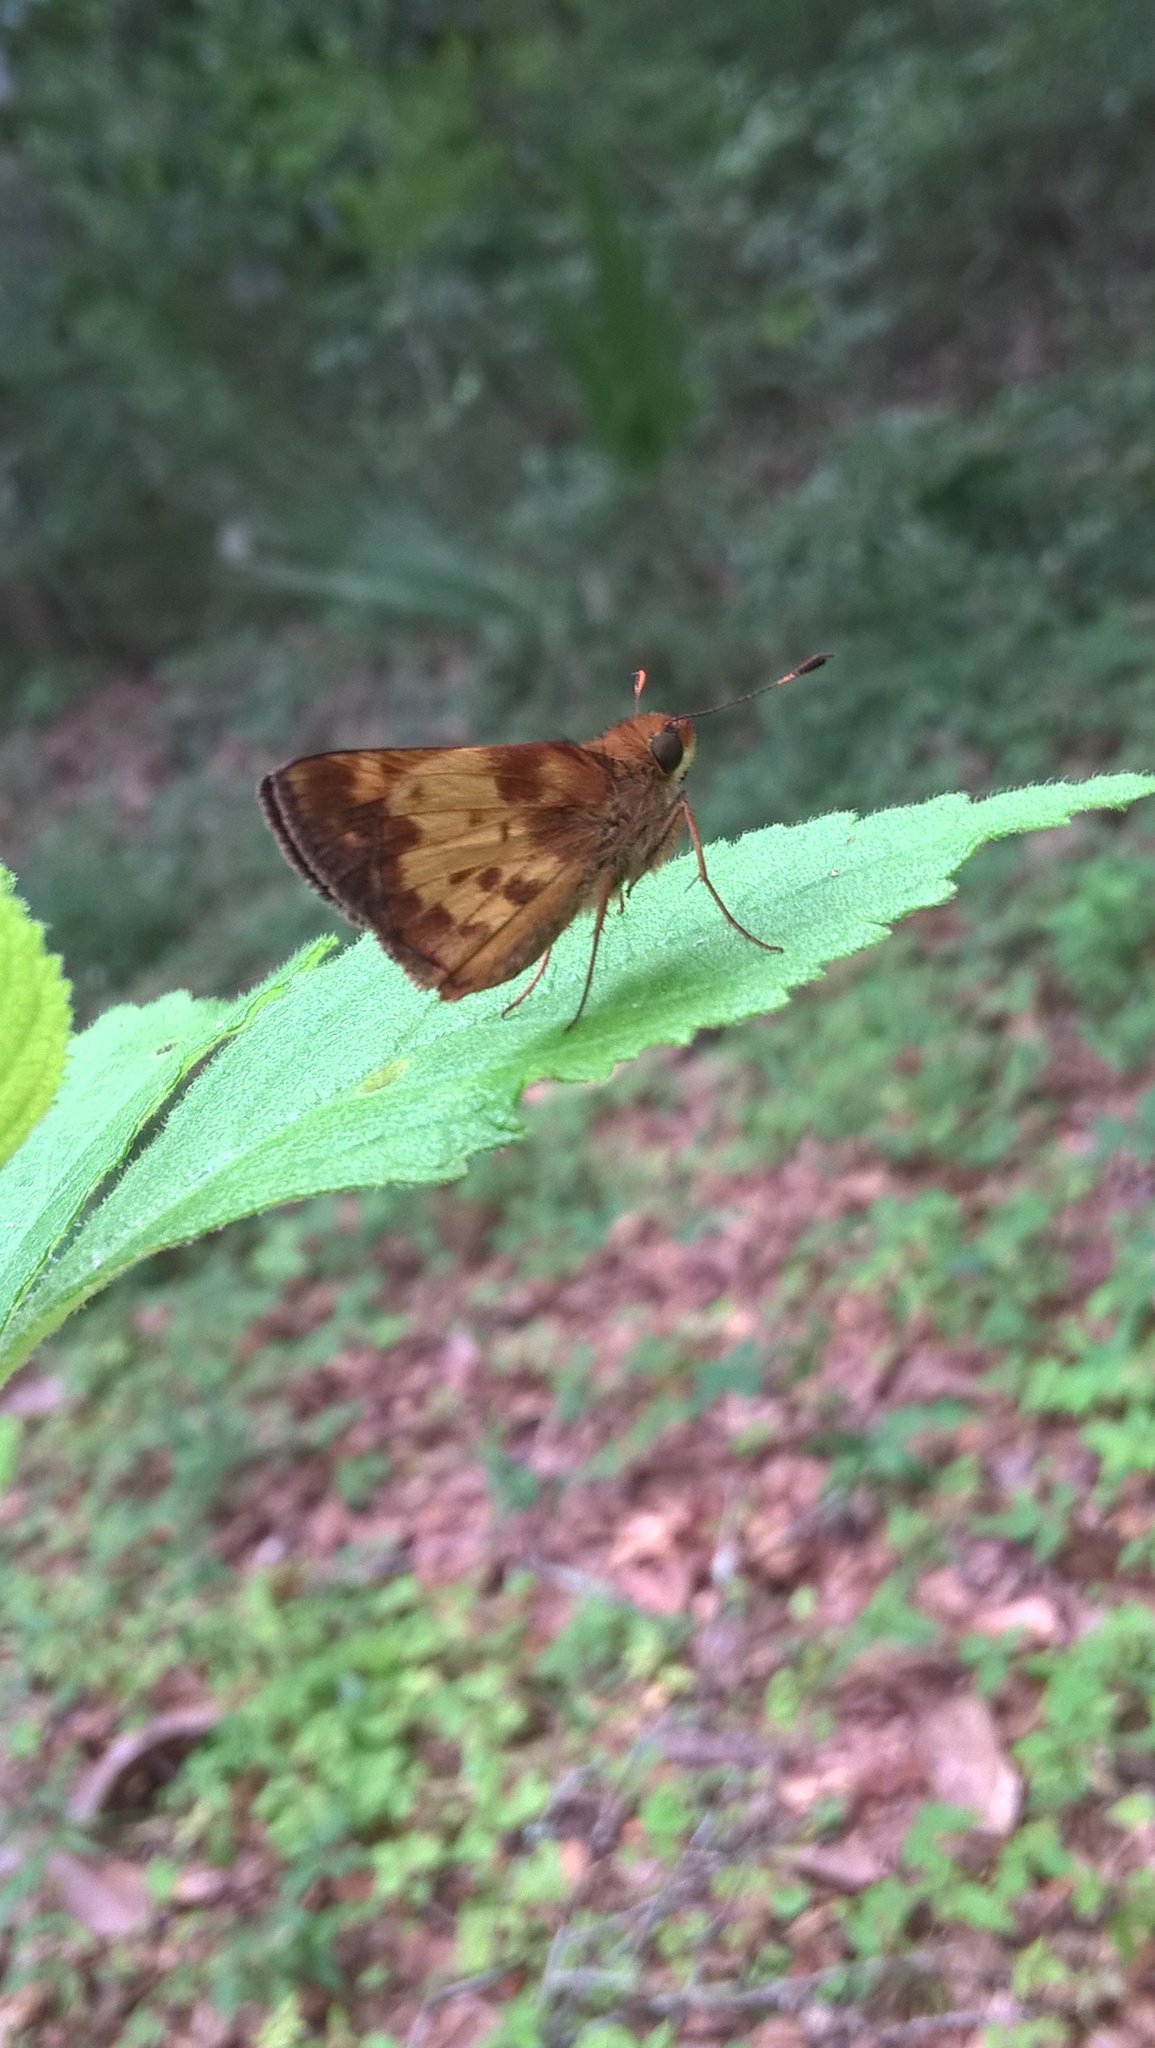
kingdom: Animalia
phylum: Arthropoda
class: Insecta
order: Lepidoptera
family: Hesperiidae
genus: Lon
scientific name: Lon zabulon
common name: Zabulon skipper
